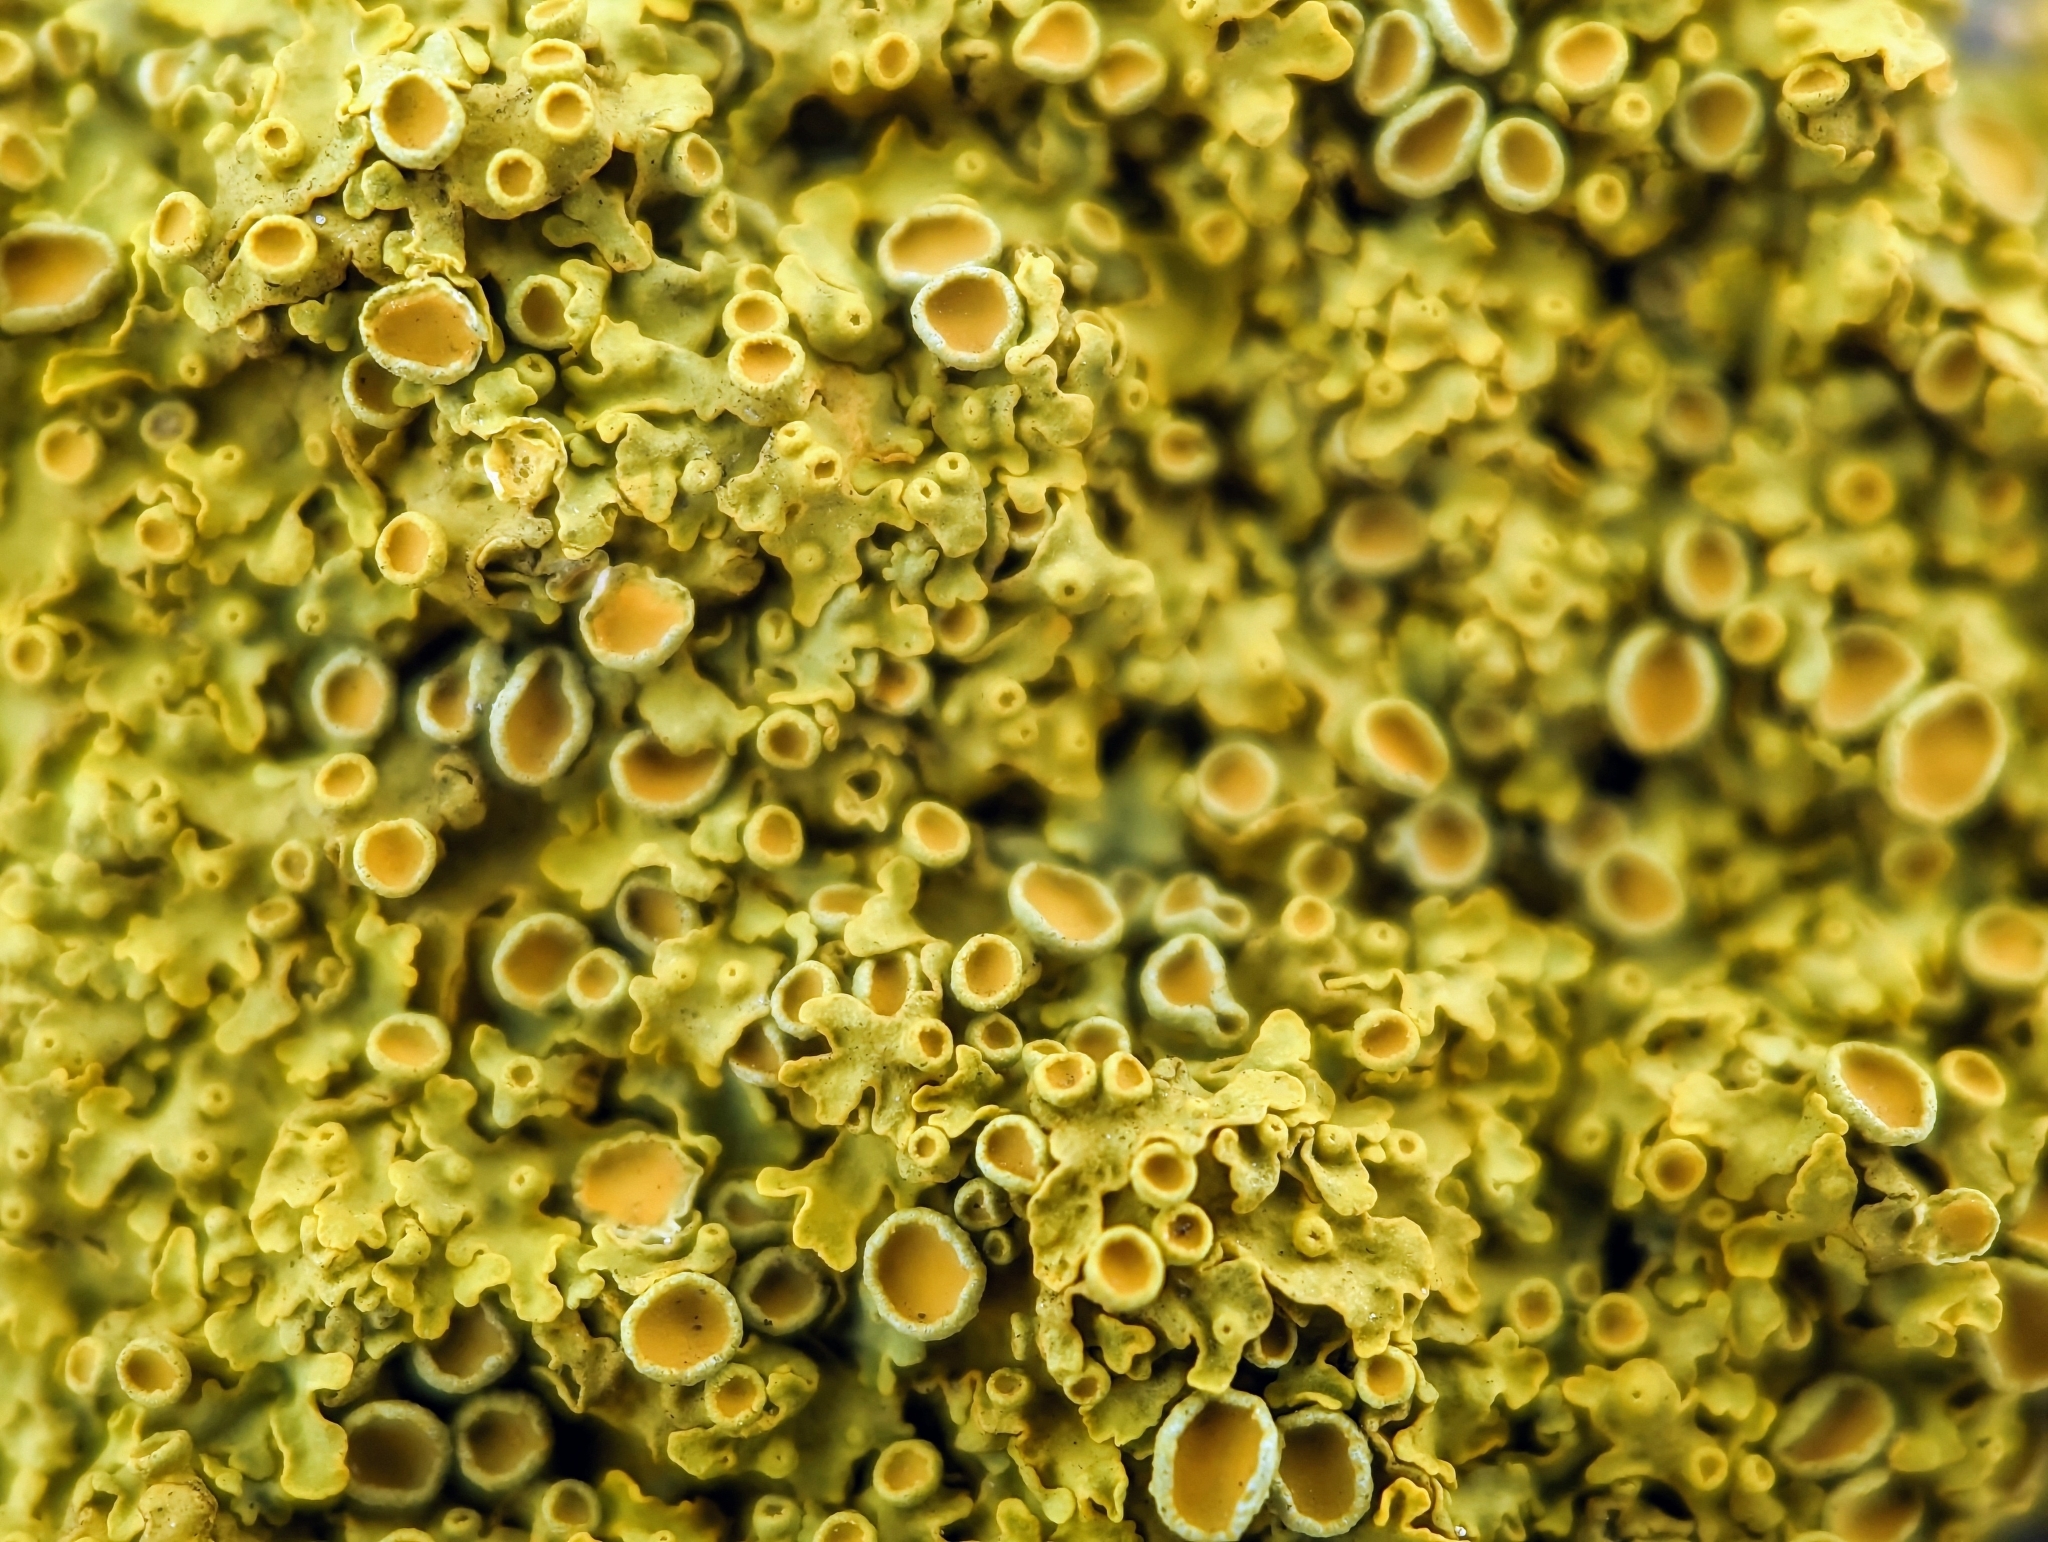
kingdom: Fungi
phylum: Ascomycota
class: Lecanoromycetes
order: Teloschistales
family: Teloschistaceae
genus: Xanthoria
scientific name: Xanthoria parietina
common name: Common orange lichen
